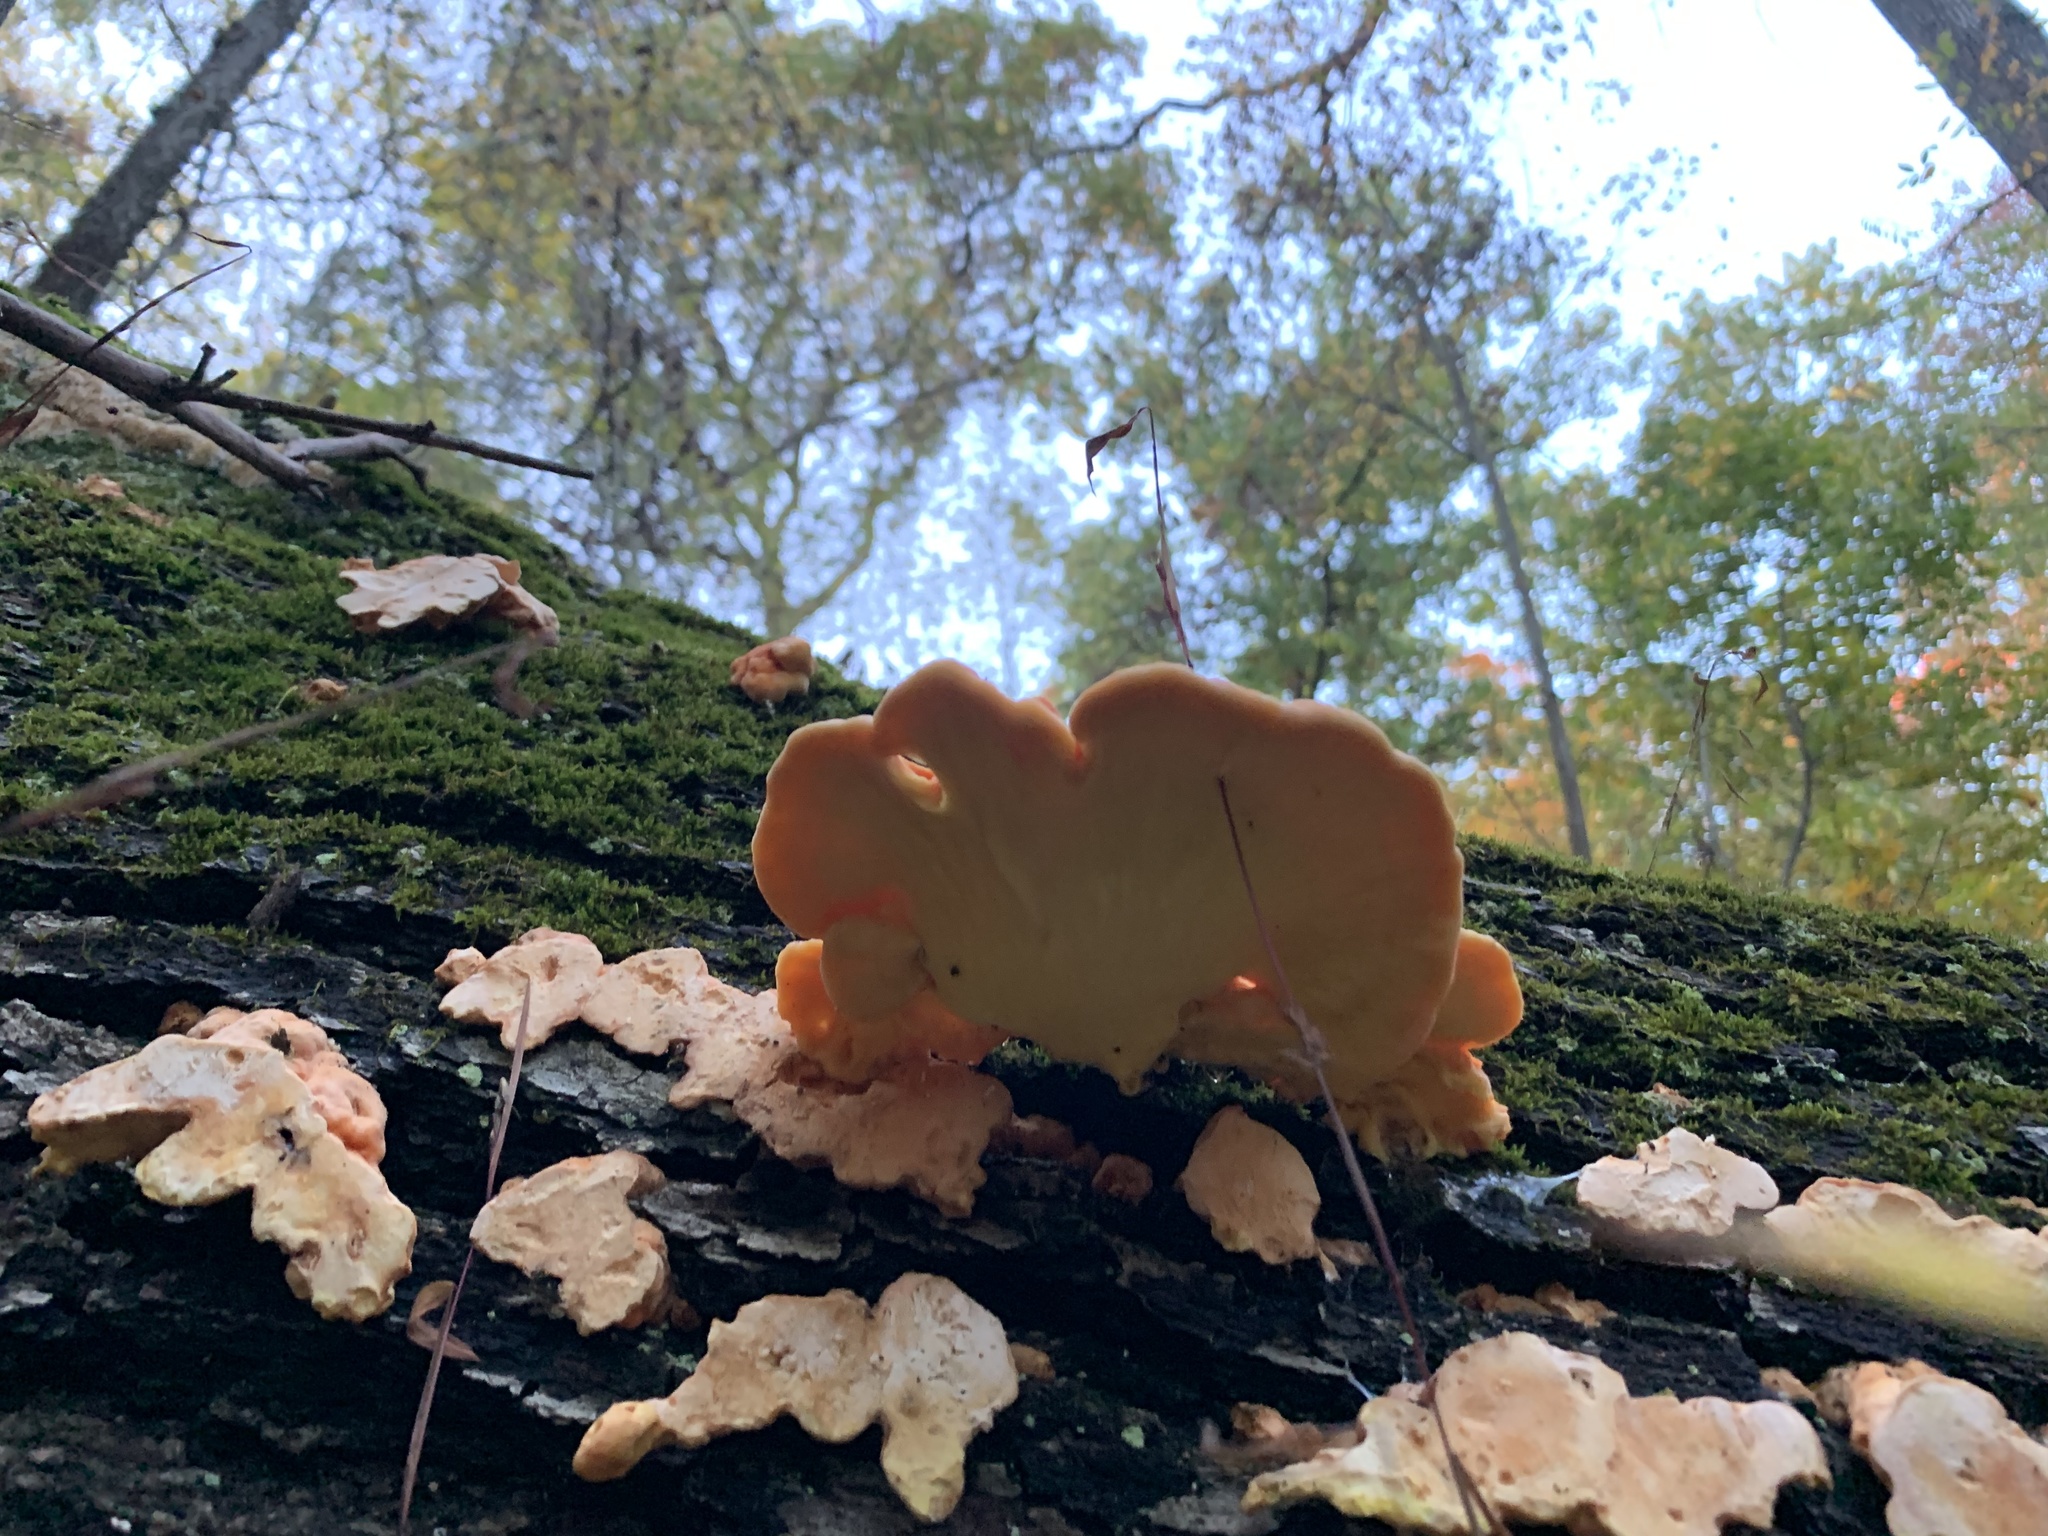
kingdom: Fungi
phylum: Basidiomycota
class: Agaricomycetes
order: Polyporales
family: Laetiporaceae
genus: Laetiporus
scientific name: Laetiporus sulphureus
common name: Chicken of the woods
